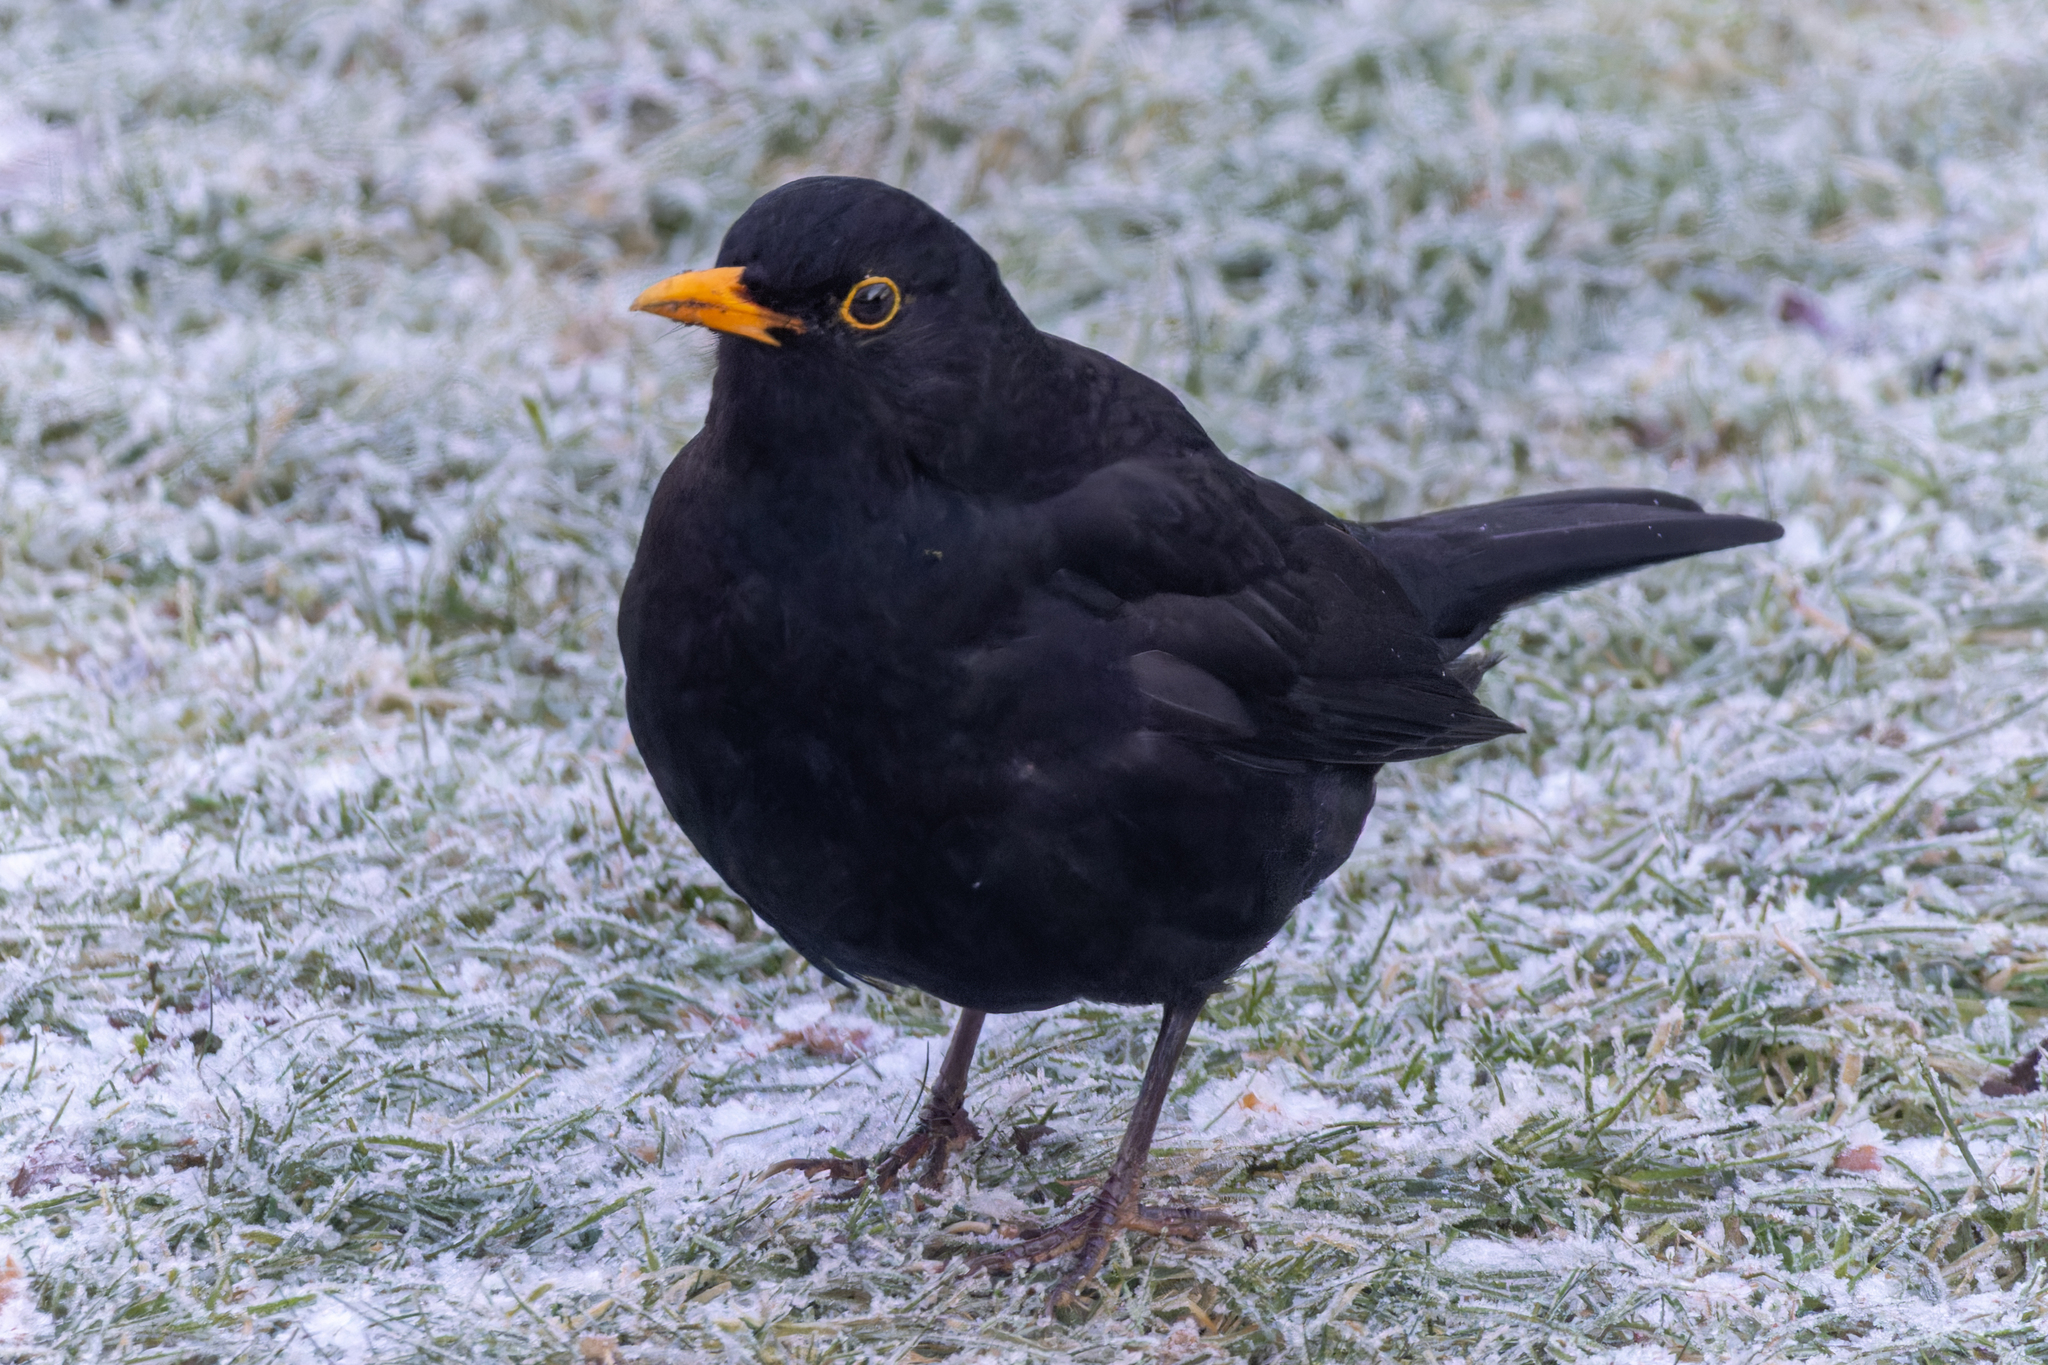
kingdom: Animalia
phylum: Chordata
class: Aves
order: Passeriformes
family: Turdidae
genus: Turdus
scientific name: Turdus merula
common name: Common blackbird
